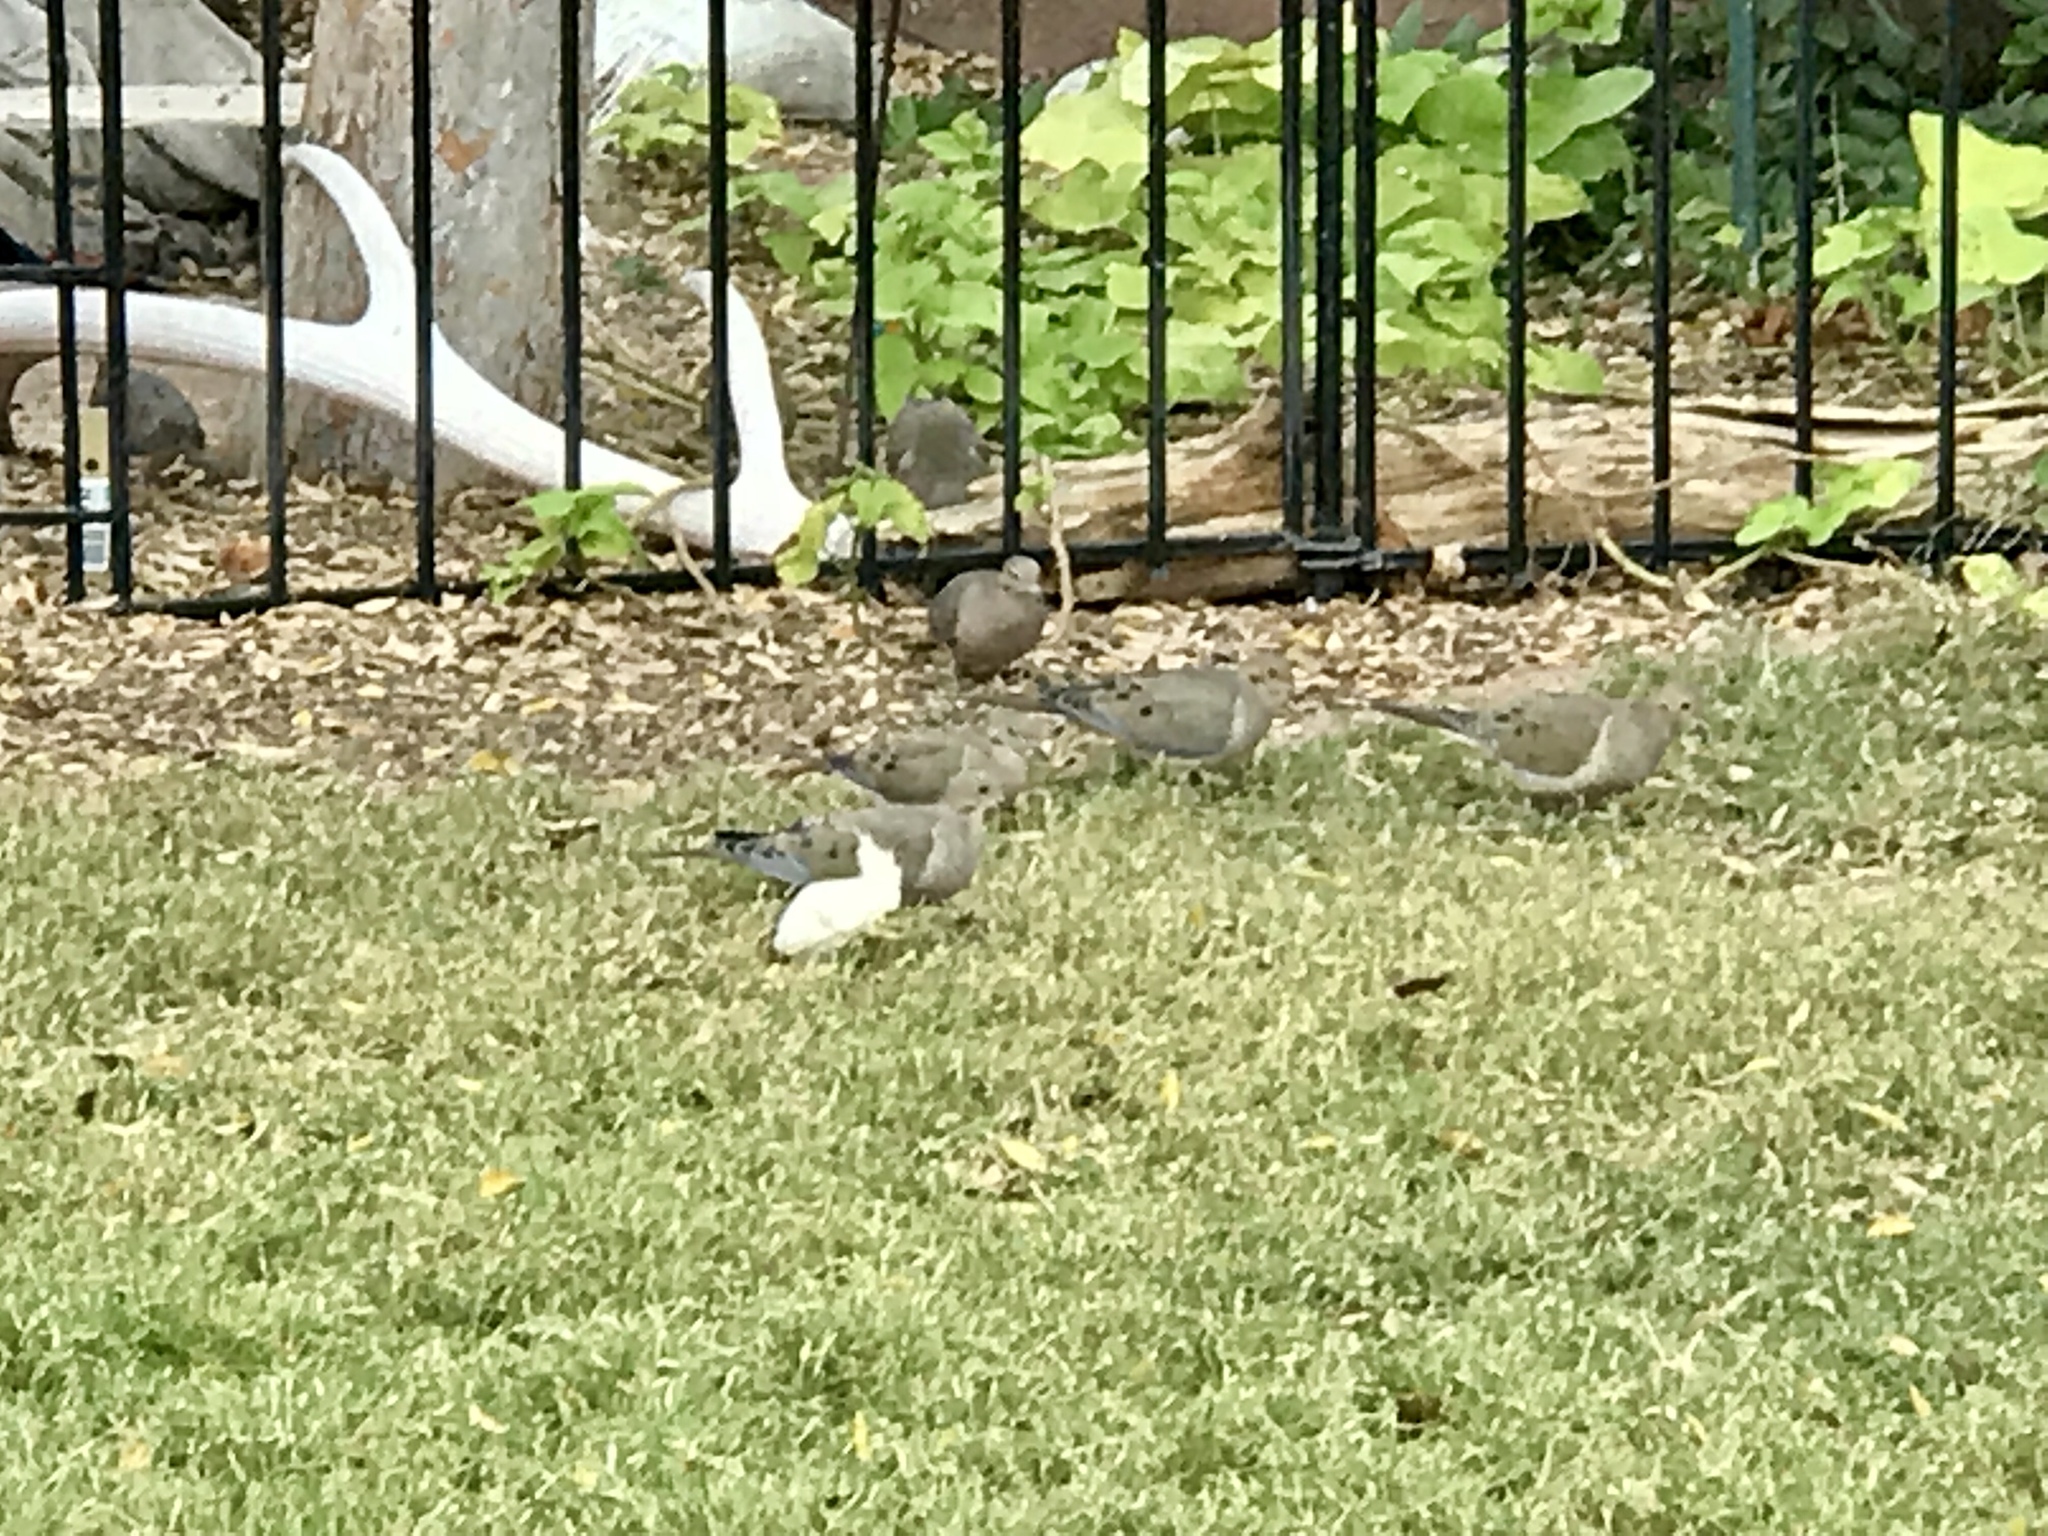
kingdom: Animalia
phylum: Chordata
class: Aves
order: Columbiformes
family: Columbidae
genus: Zenaida
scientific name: Zenaida macroura
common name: Mourning dove
